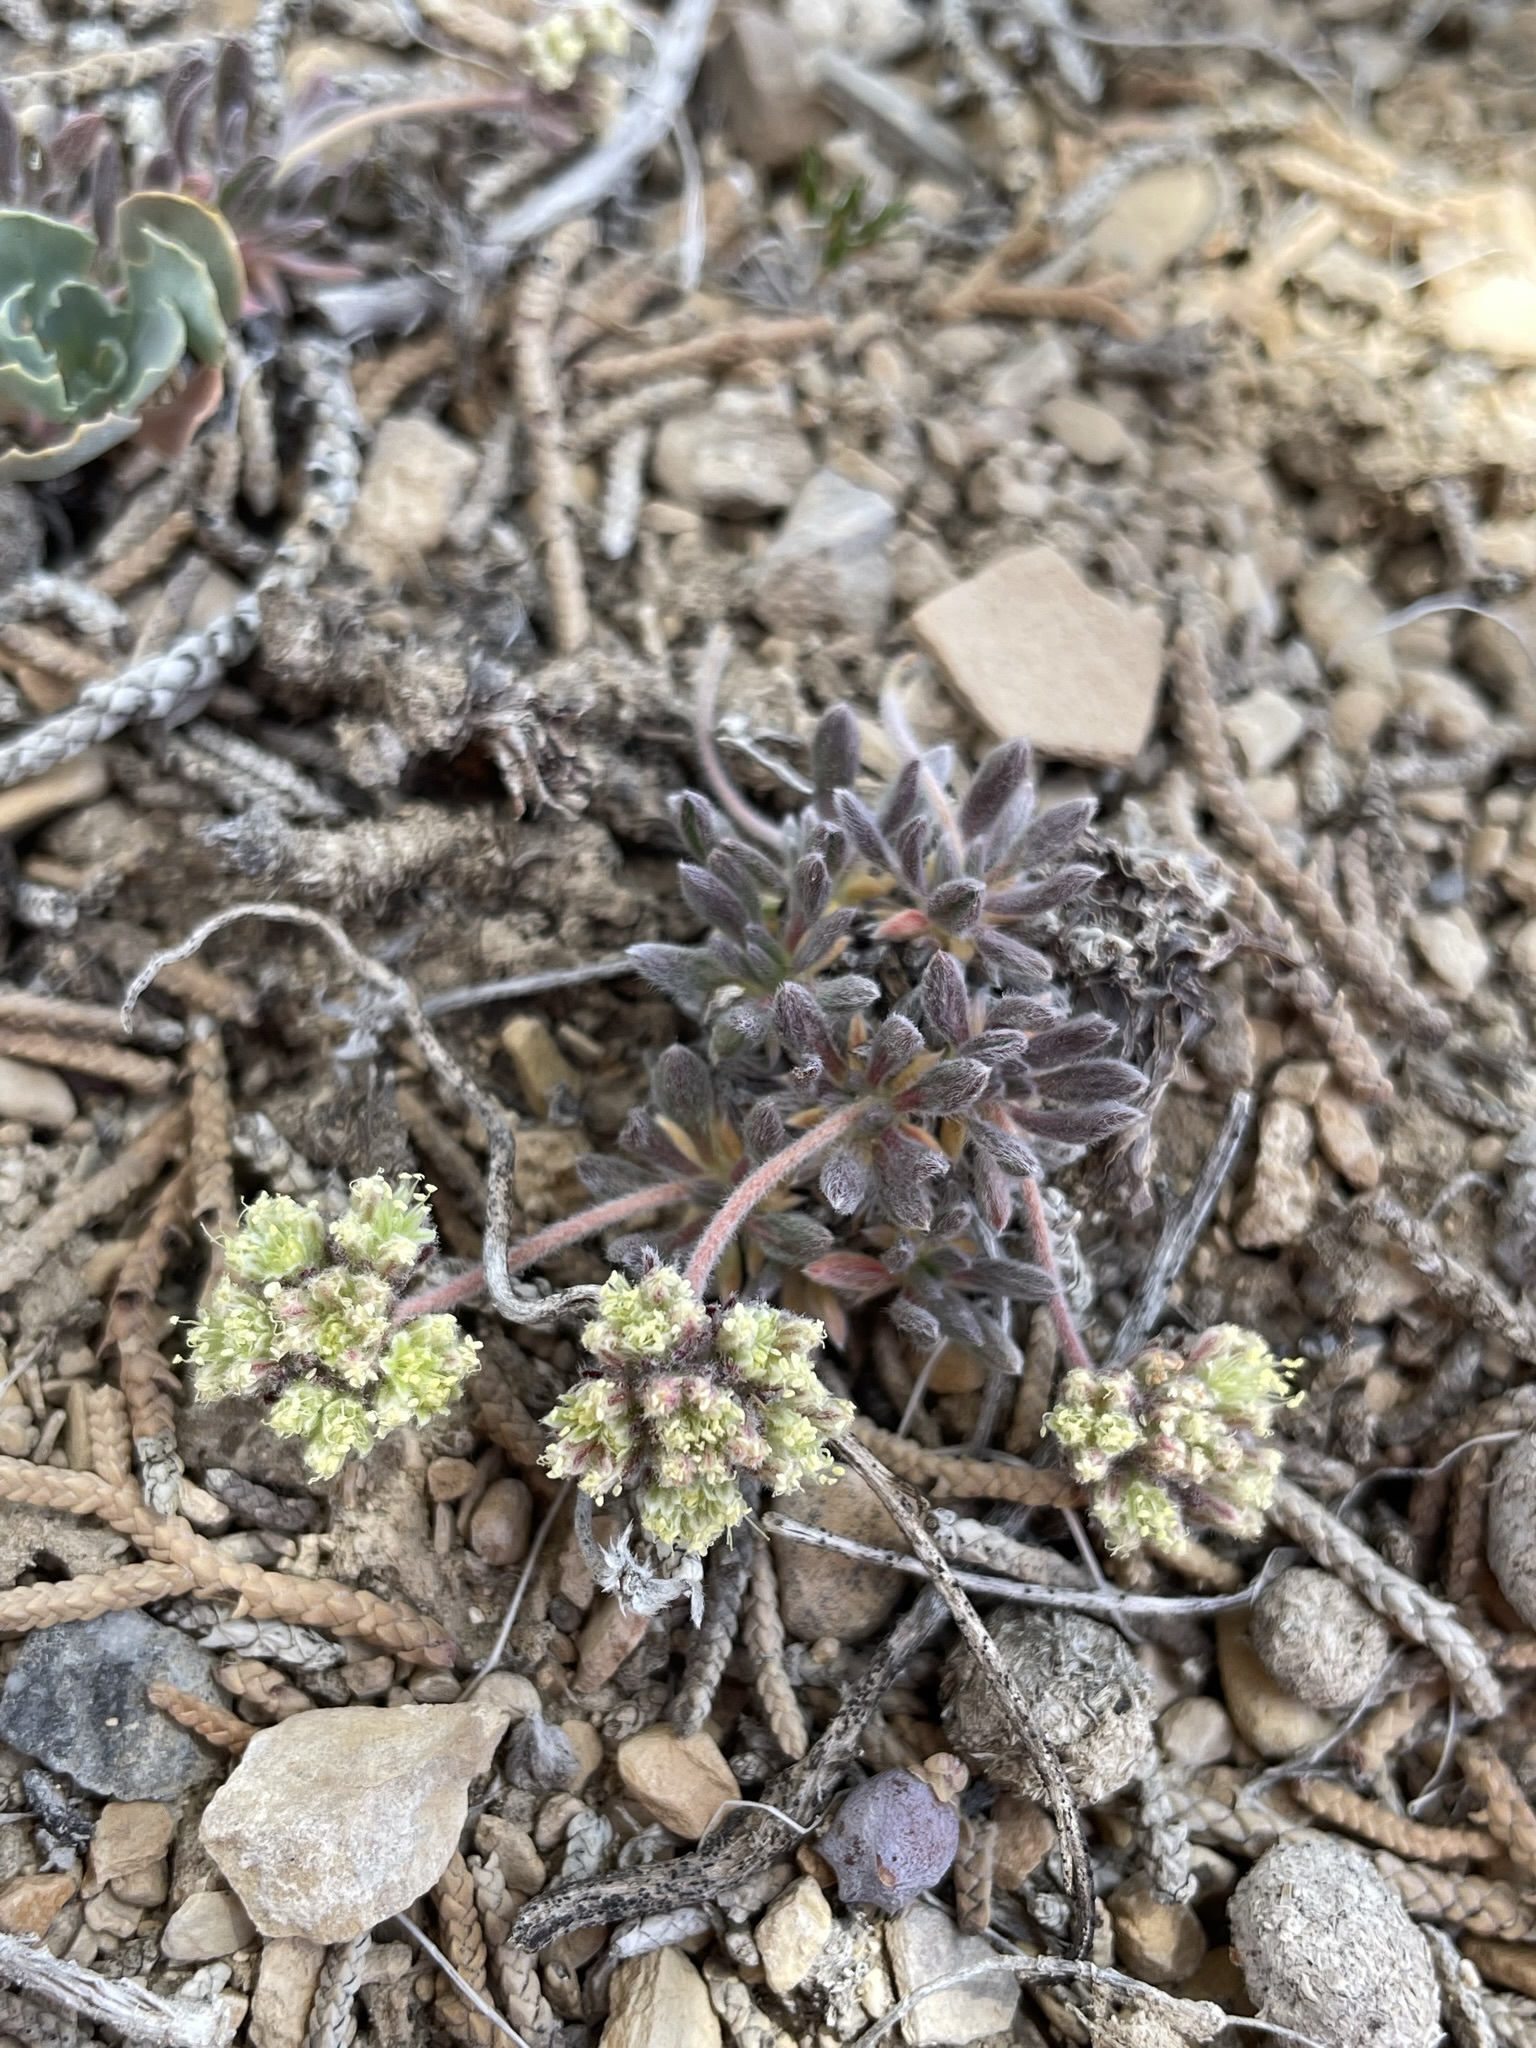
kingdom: Plantae
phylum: Tracheophyta
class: Magnoliopsida
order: Caryophyllales
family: Polygonaceae
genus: Eriogonum
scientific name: Eriogonum villiflorum
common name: Gray's wild buckwheat
